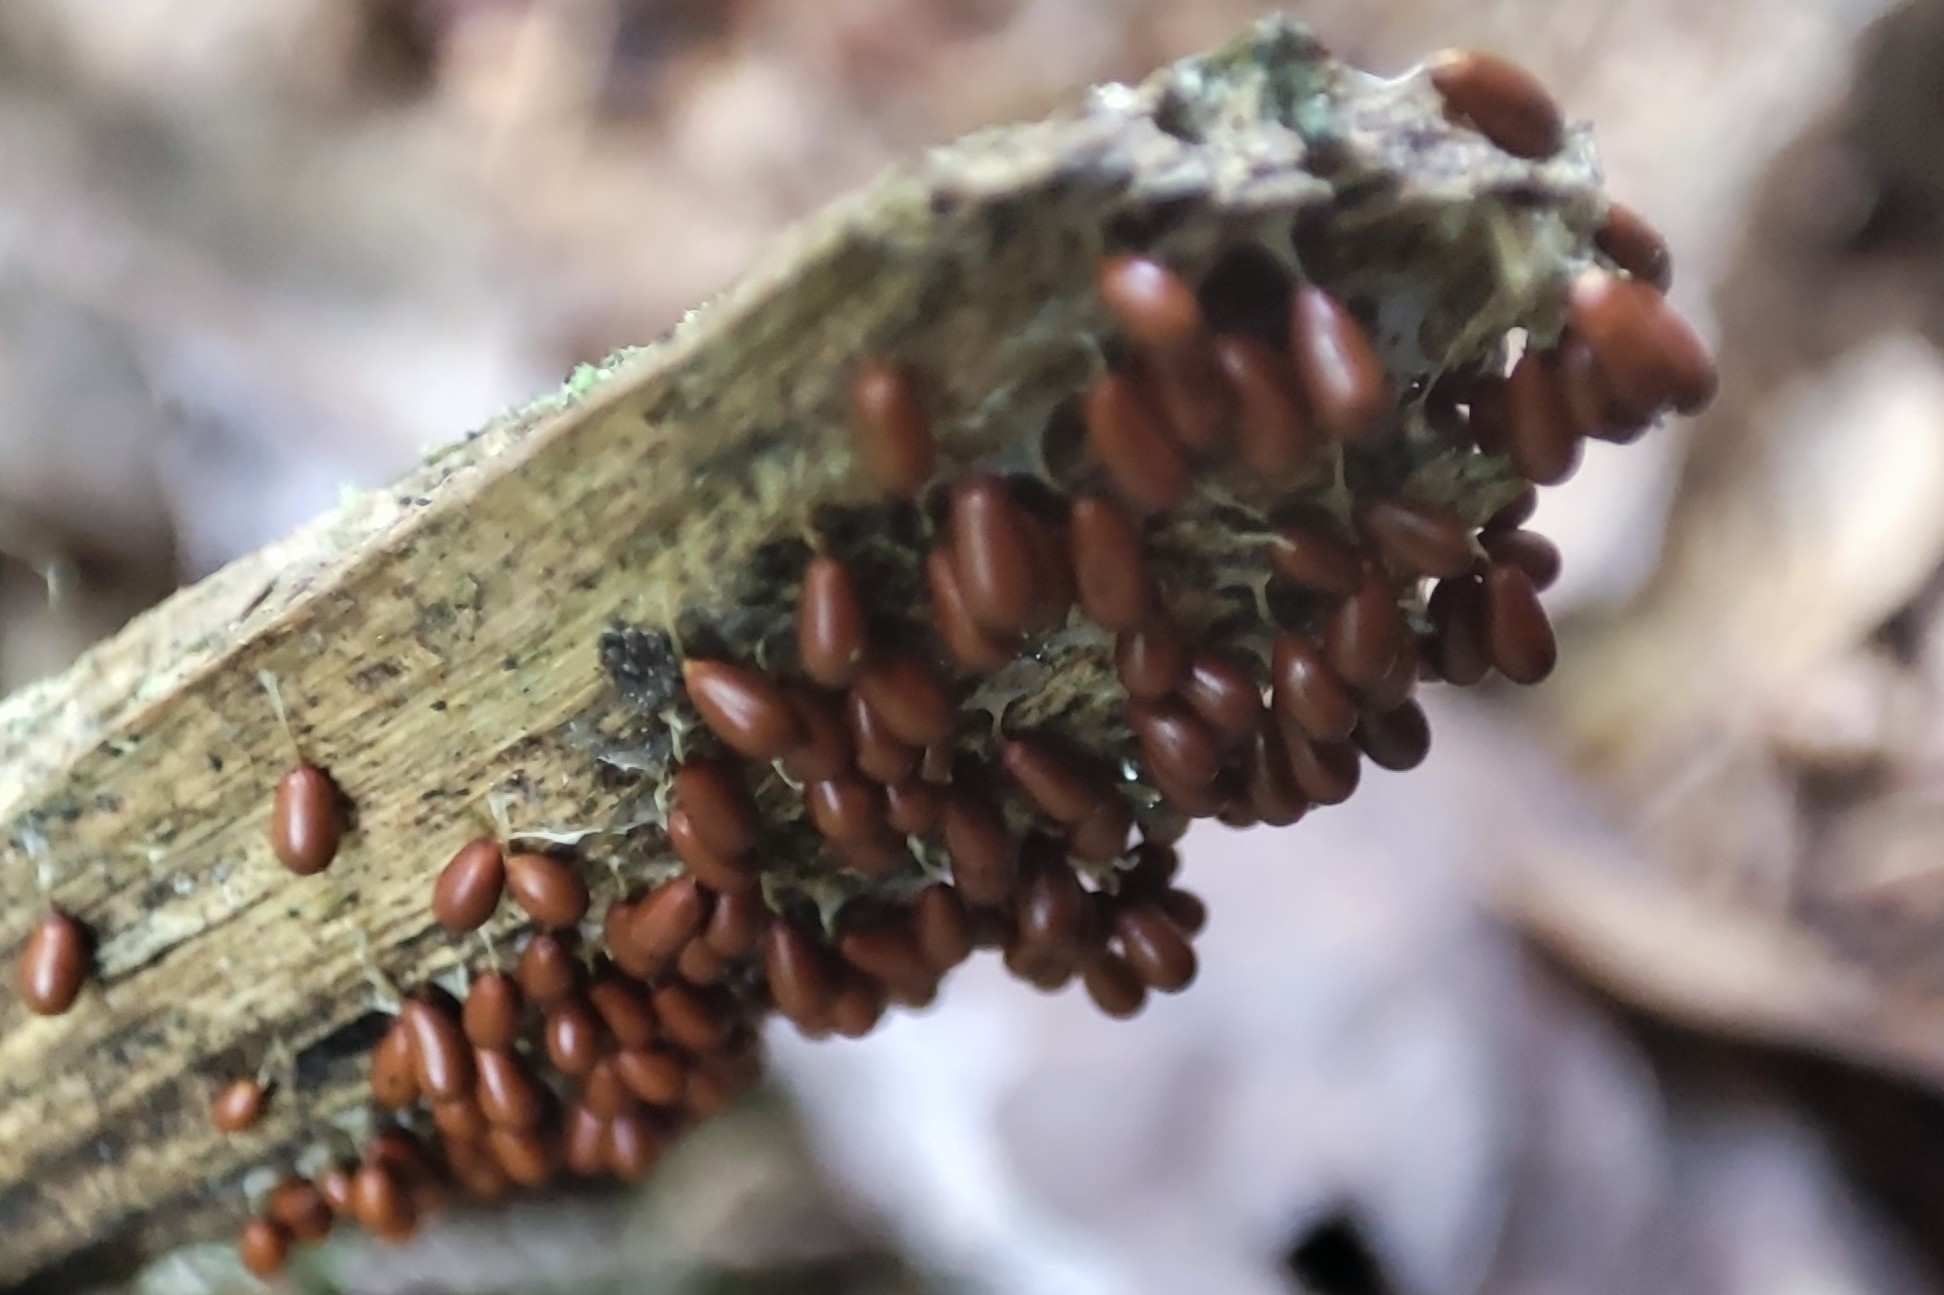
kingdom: Protozoa
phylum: Mycetozoa
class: Myxomycetes
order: Physarales
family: Physaraceae
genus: Leocarpus
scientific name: Leocarpus fragilis
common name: Insect-egg slime
